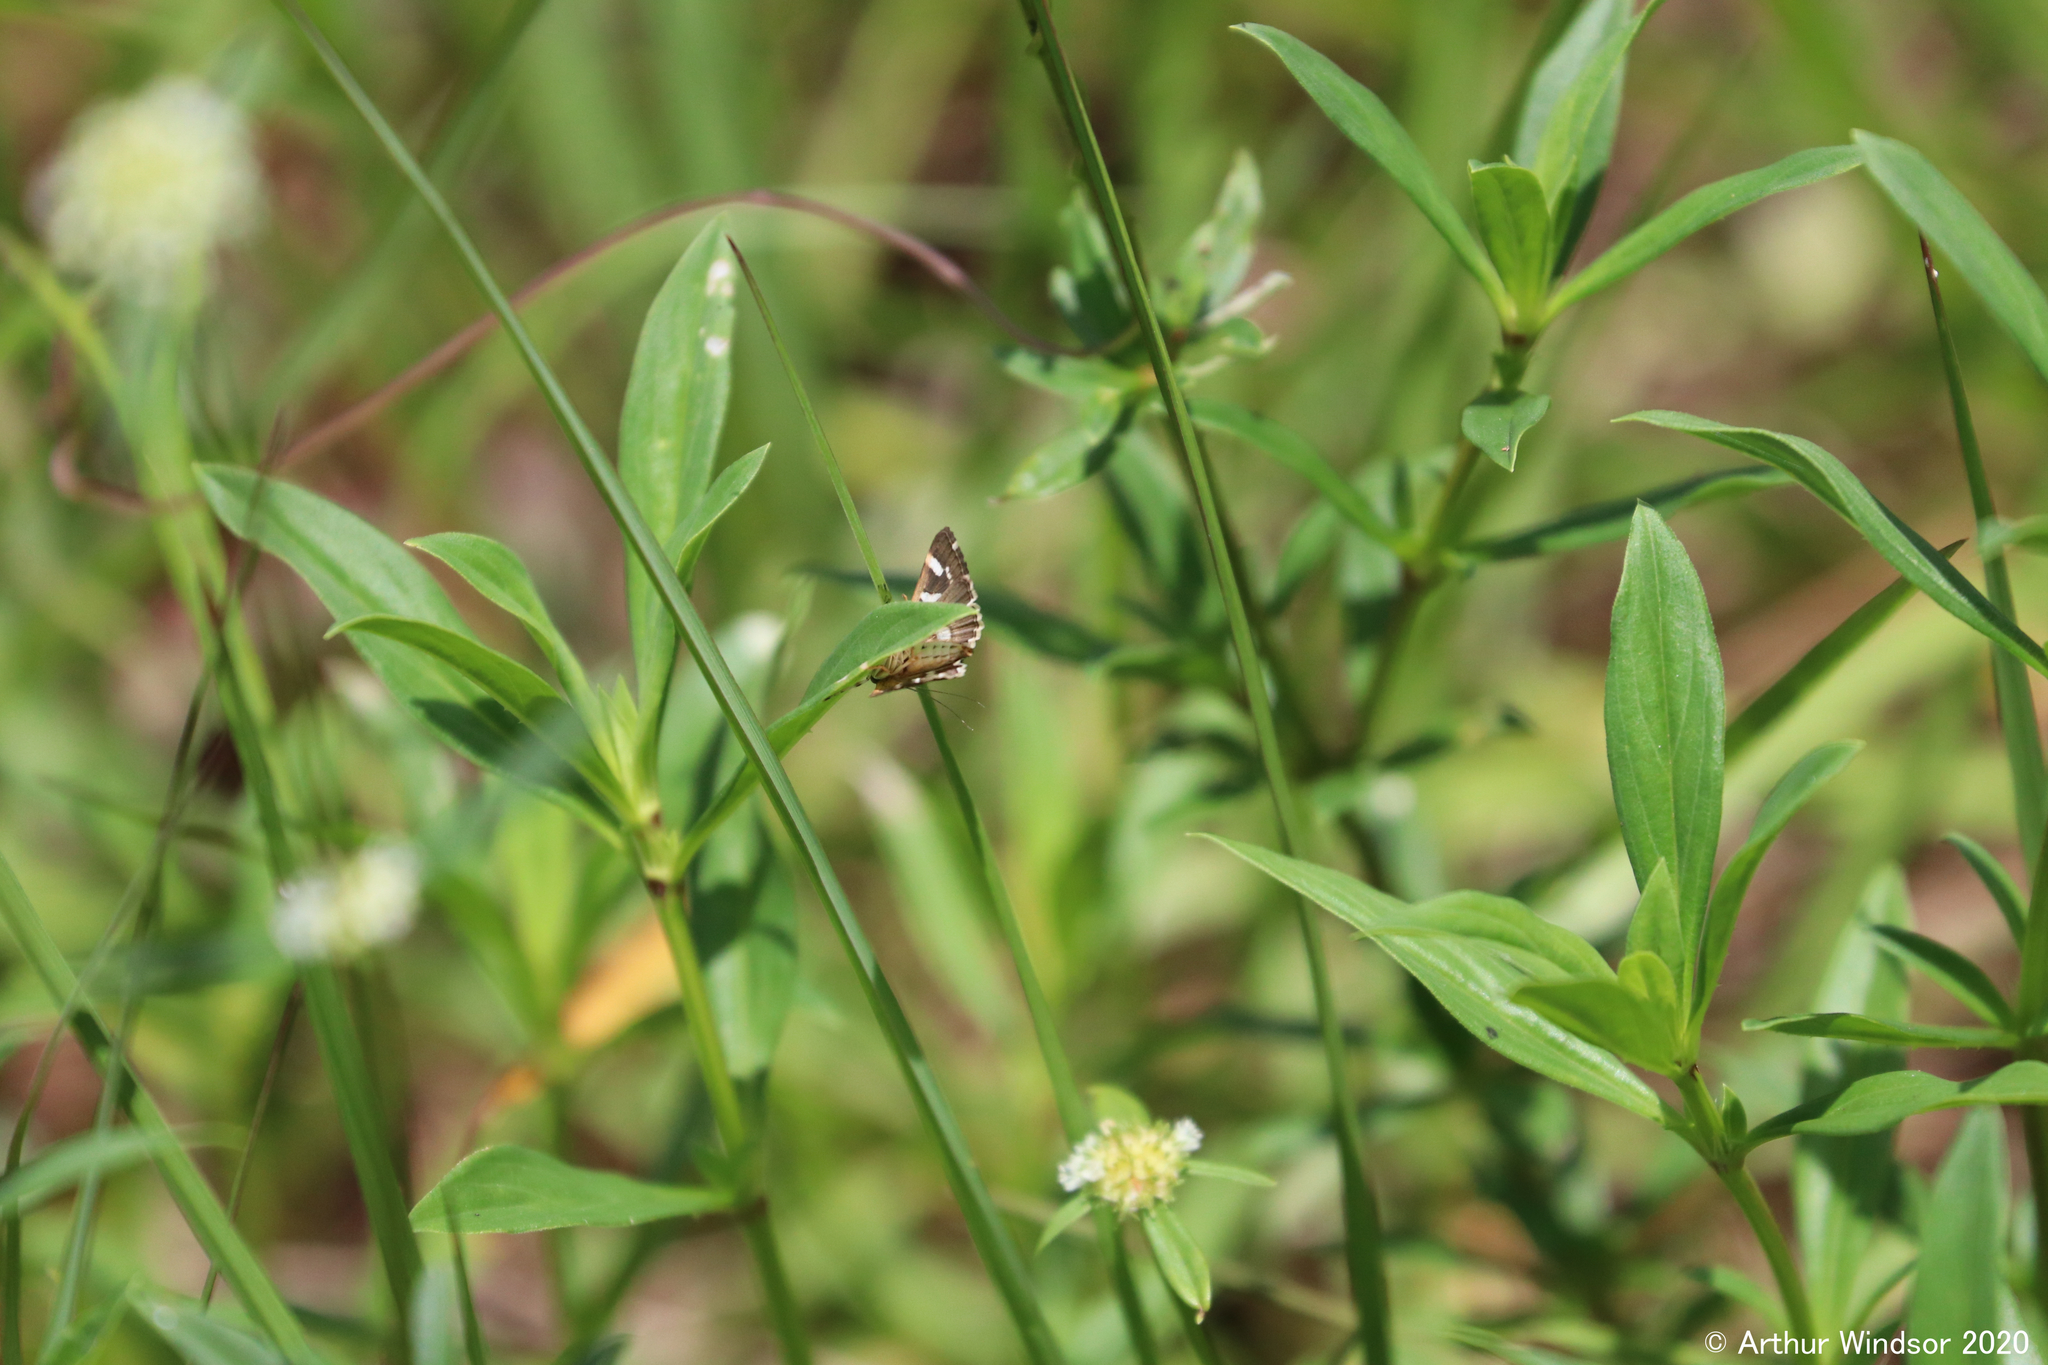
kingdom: Animalia
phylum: Arthropoda
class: Insecta
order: Lepidoptera
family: Crambidae
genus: Spoladea
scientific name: Spoladea recurvalis
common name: Beet webworm moth
